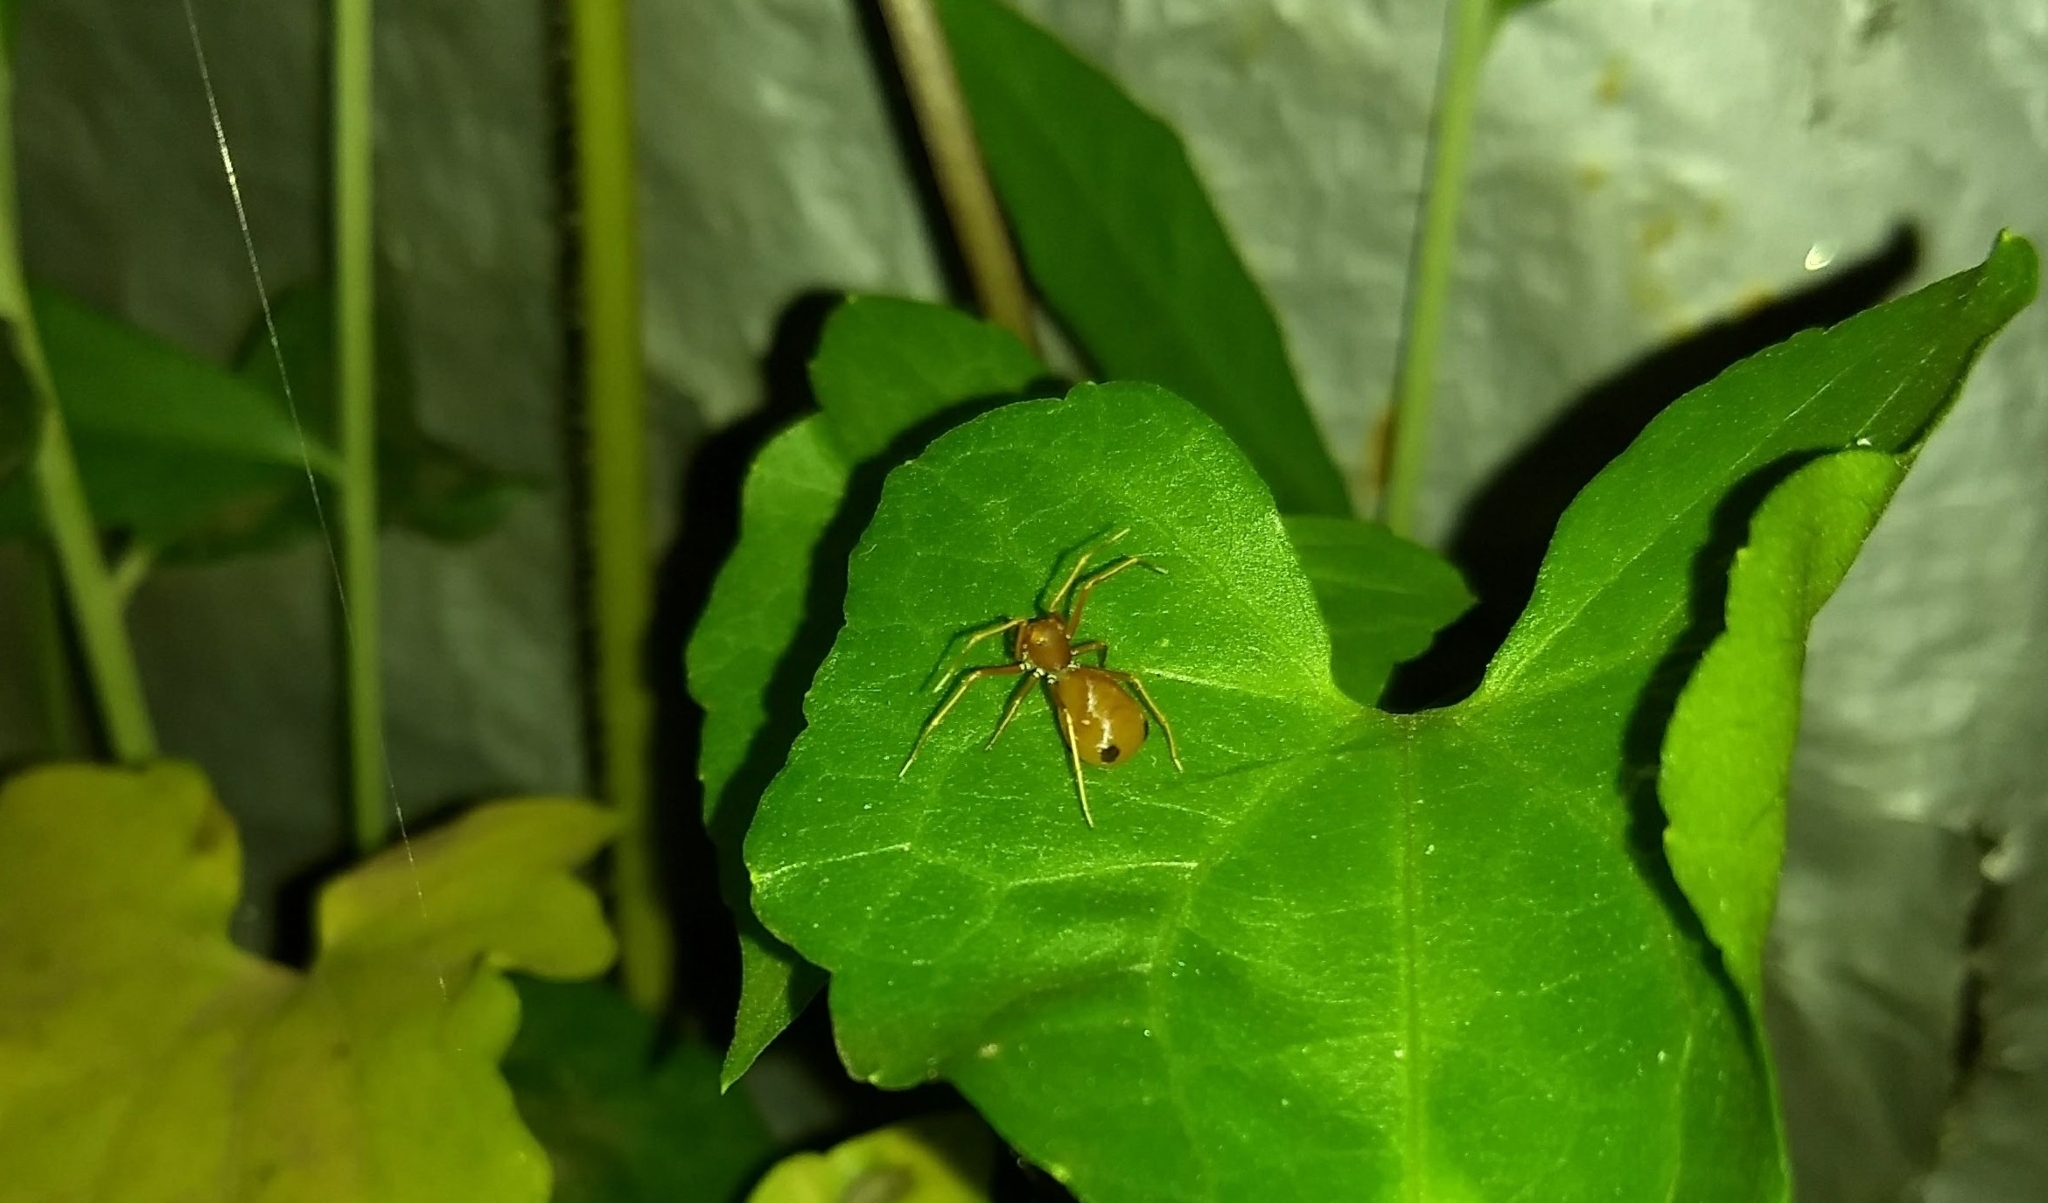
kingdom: Animalia
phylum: Arthropoda
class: Arachnida
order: Araneae
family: Thomisidae
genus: Amyciaea
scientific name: Amyciaea forticeps
